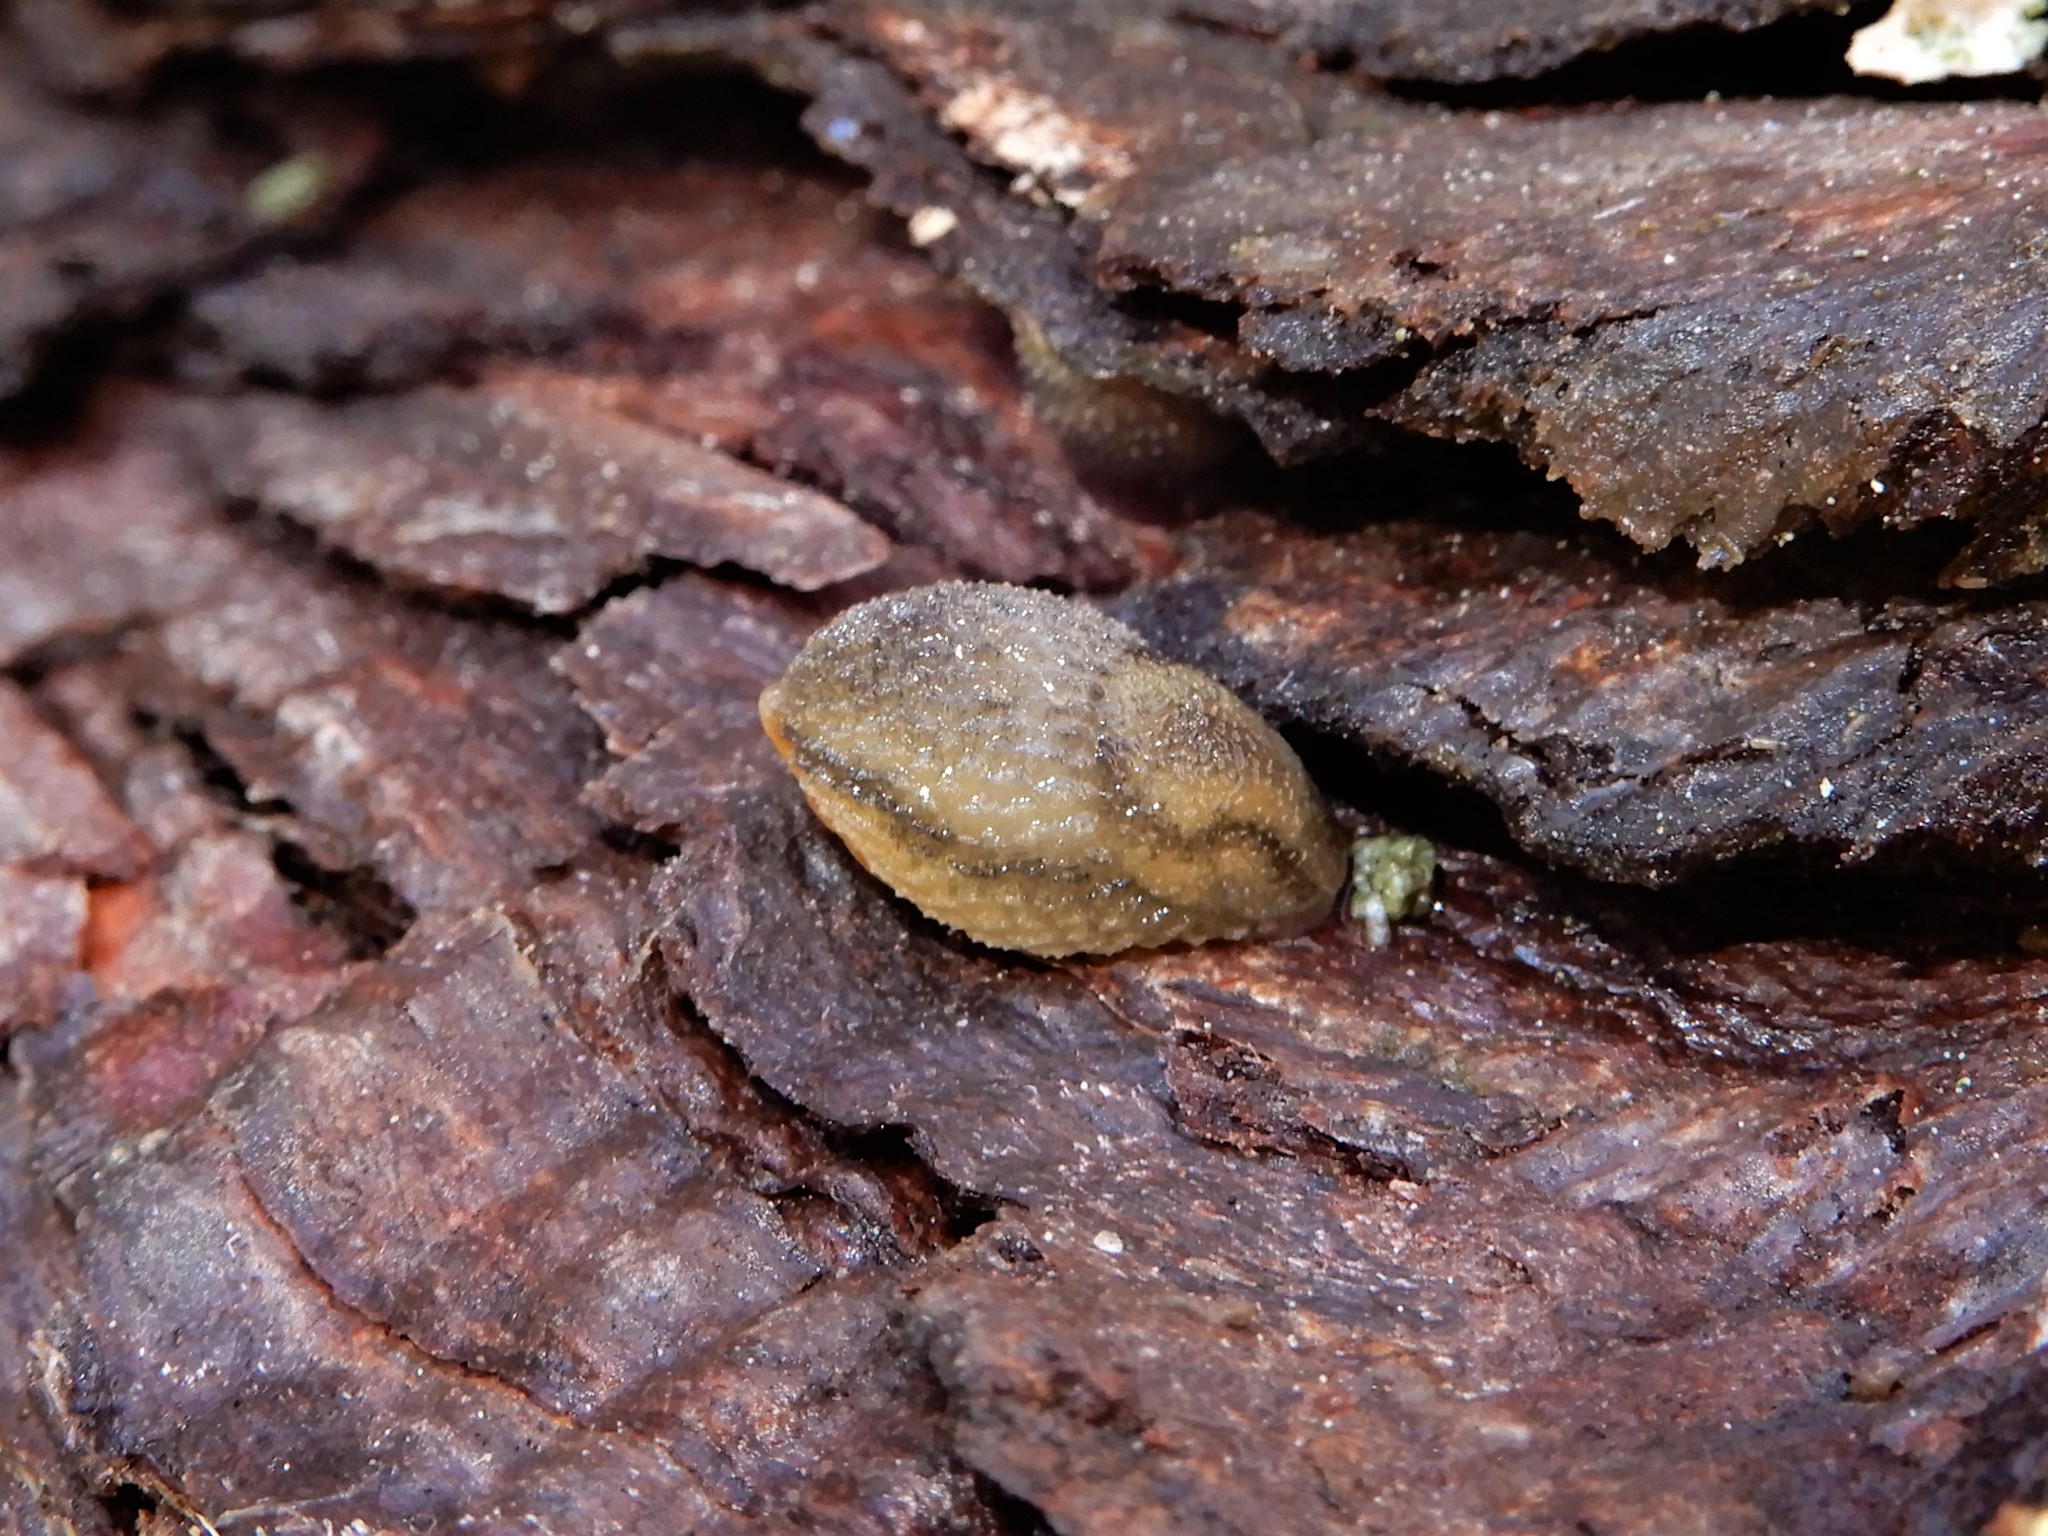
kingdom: Animalia
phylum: Mollusca
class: Gastropoda
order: Stylommatophora
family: Arionidae
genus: Arion
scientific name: Arion intermedius
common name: Hedgehog slug
